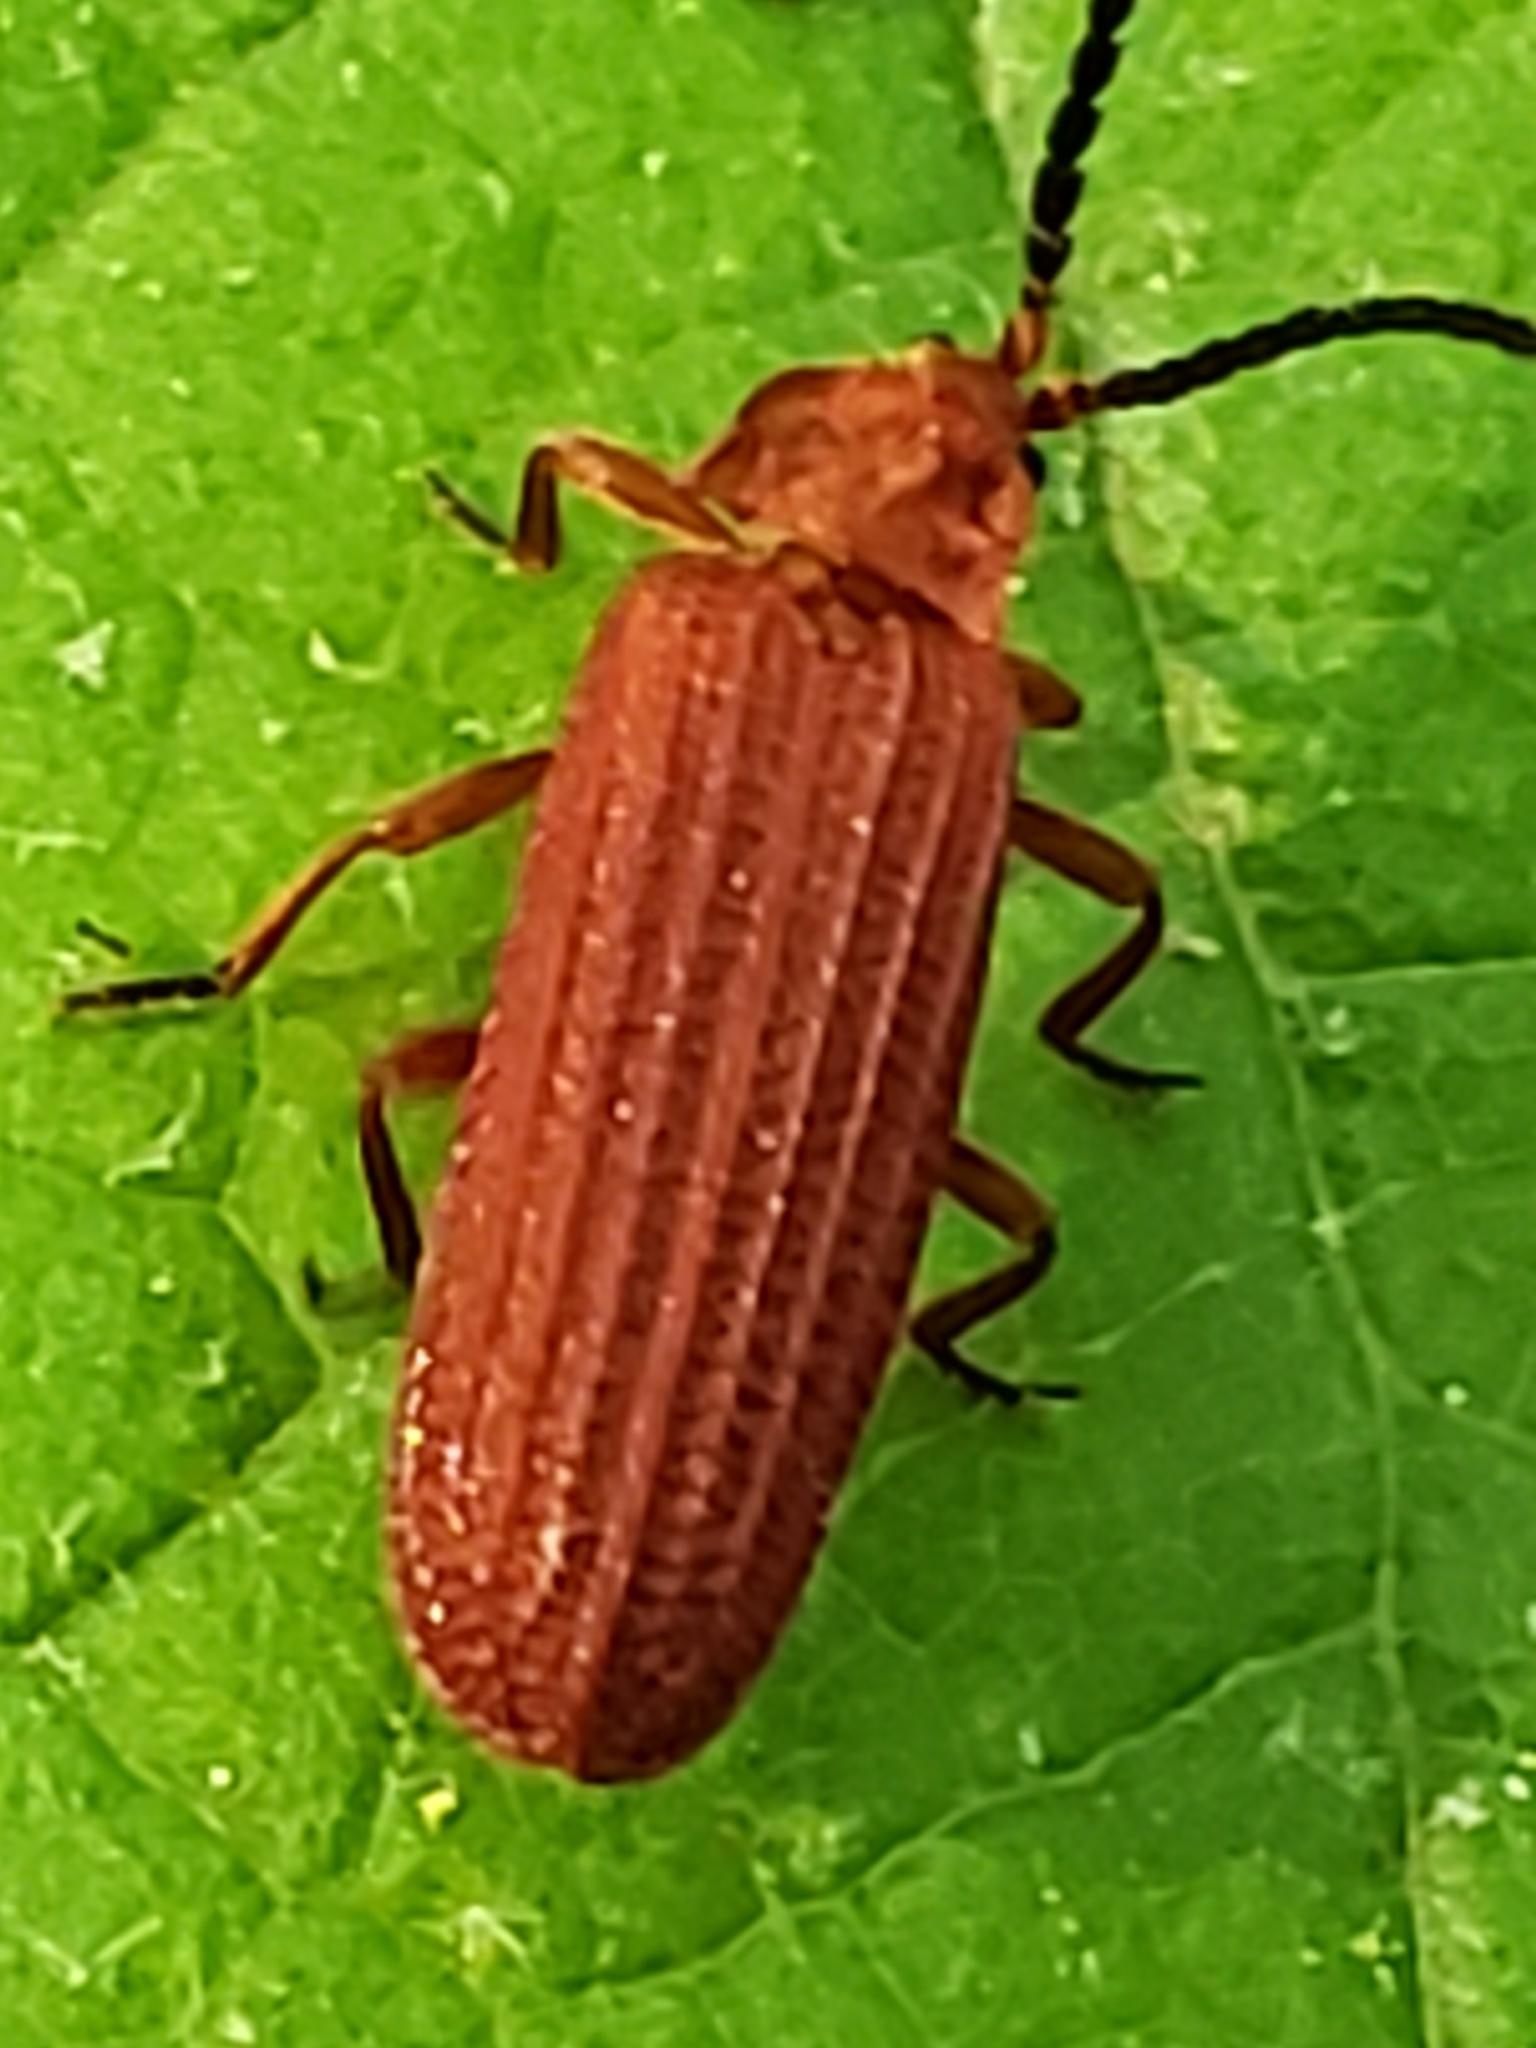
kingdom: Animalia
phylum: Arthropoda
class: Insecta
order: Coleoptera
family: Lycidae
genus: Punicealis
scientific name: Punicealis
